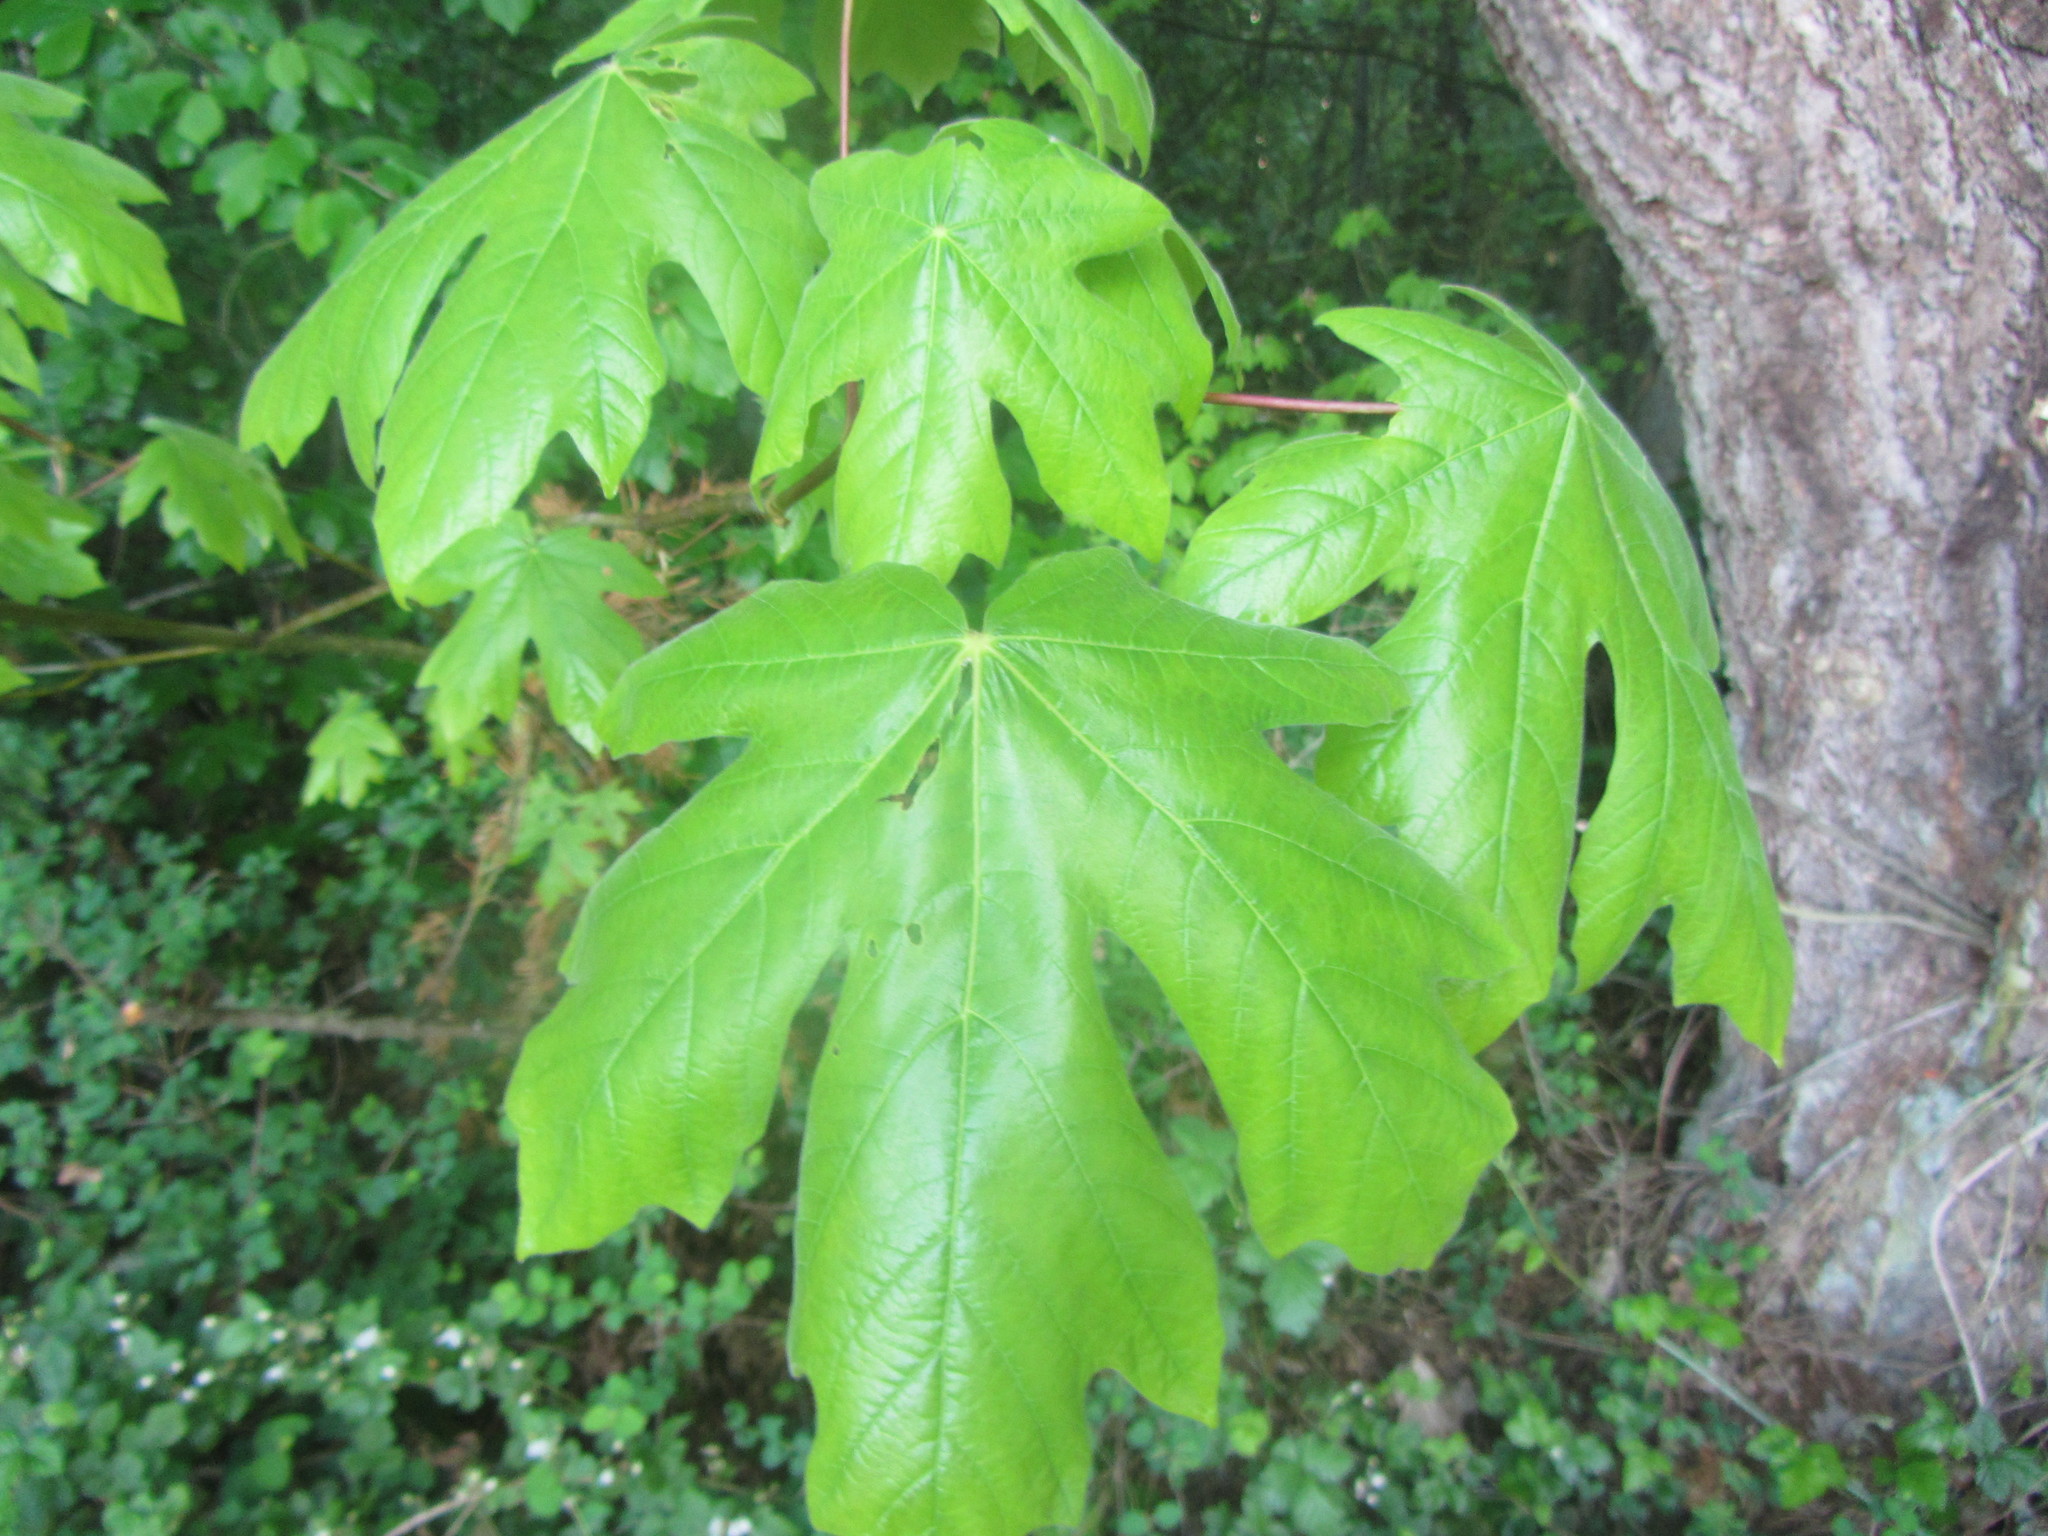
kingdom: Plantae
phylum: Tracheophyta
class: Magnoliopsida
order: Sapindales
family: Sapindaceae
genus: Acer
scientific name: Acer macrophyllum
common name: Oregon maple
